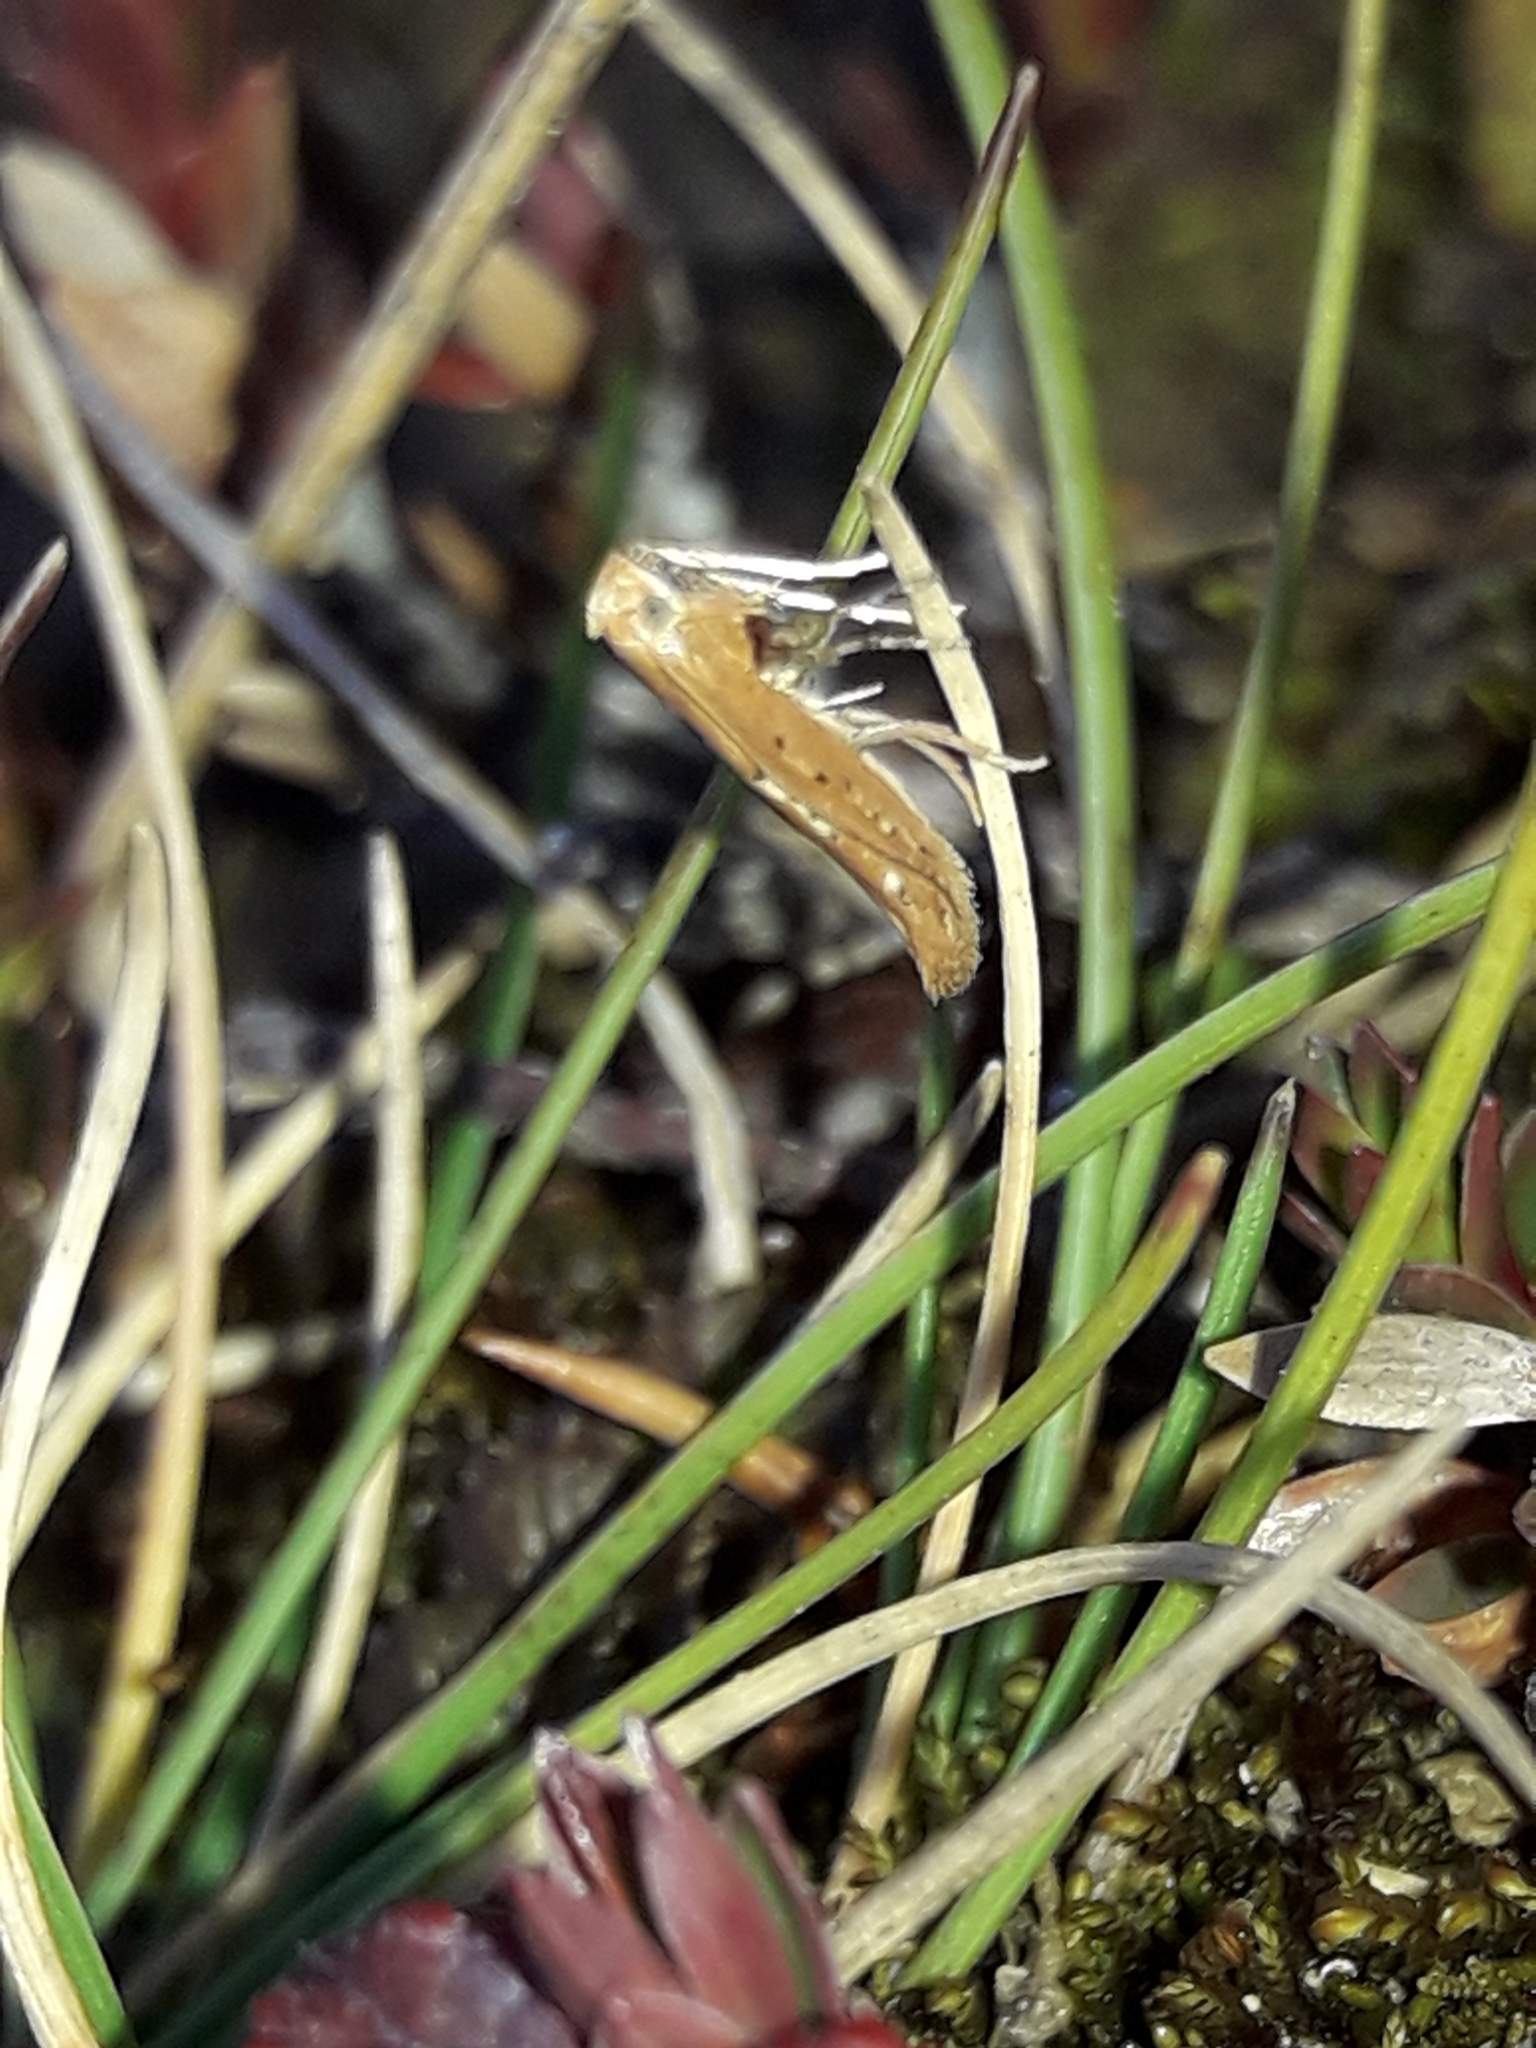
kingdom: Animalia
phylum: Arthropoda
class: Insecta
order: Lepidoptera
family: Gracillariidae
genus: Caloptilia
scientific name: Caloptilia elaeas
